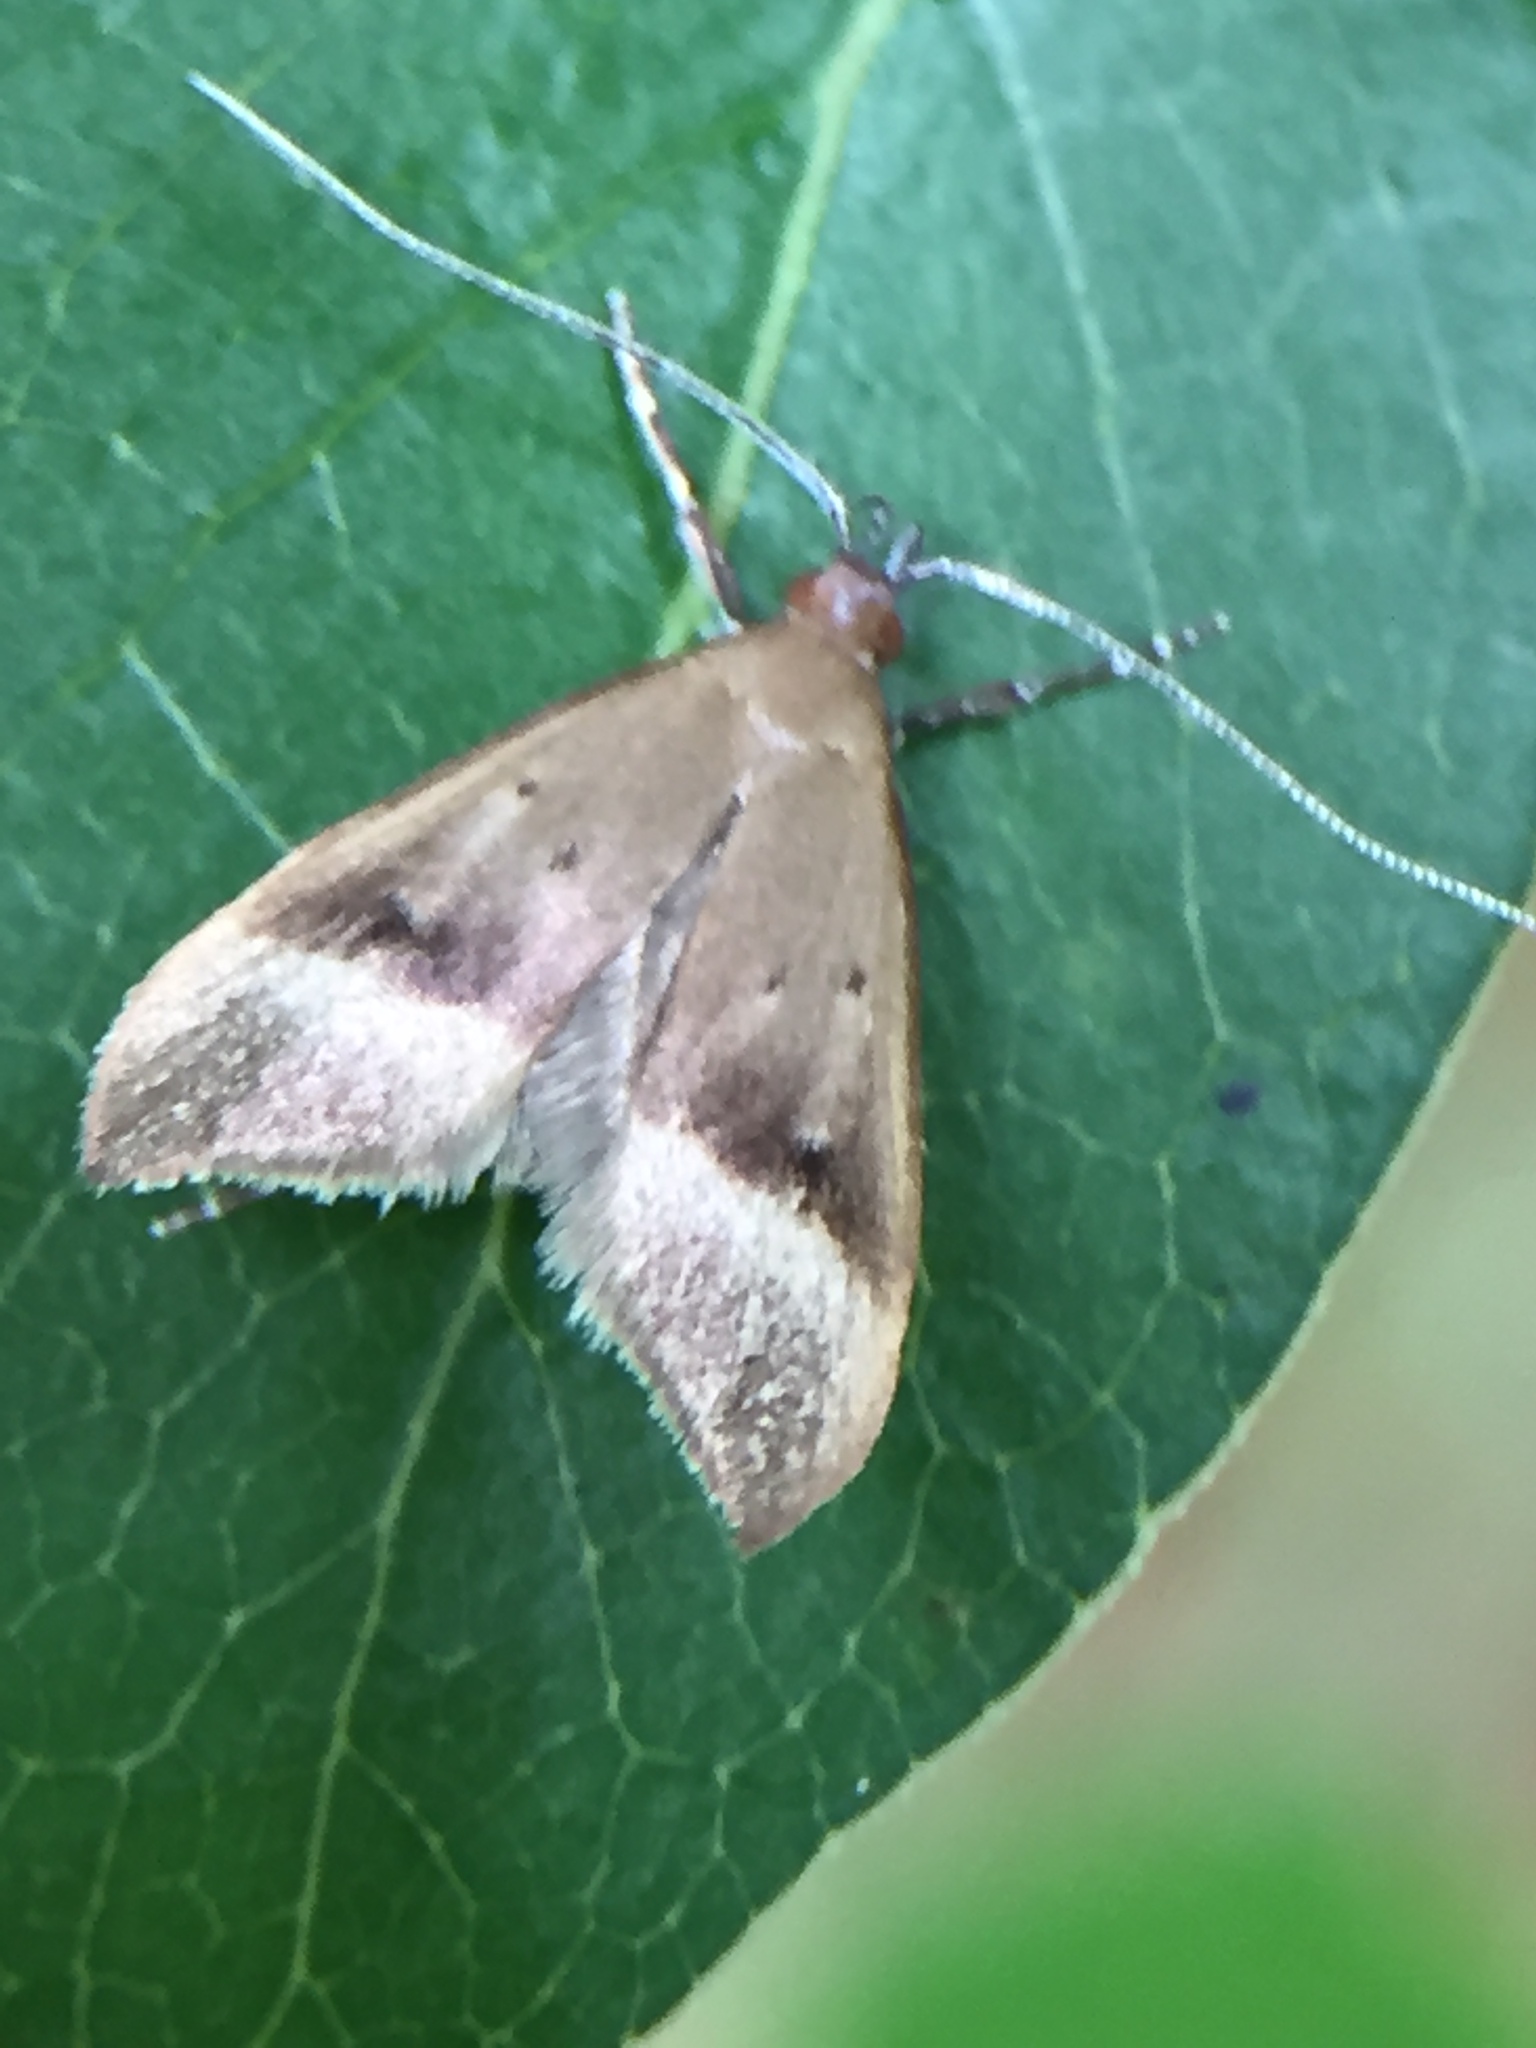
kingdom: Animalia
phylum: Arthropoda
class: Insecta
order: Lepidoptera
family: Oecophoridae
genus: Gymnobathra
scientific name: Gymnobathra hyetodes
